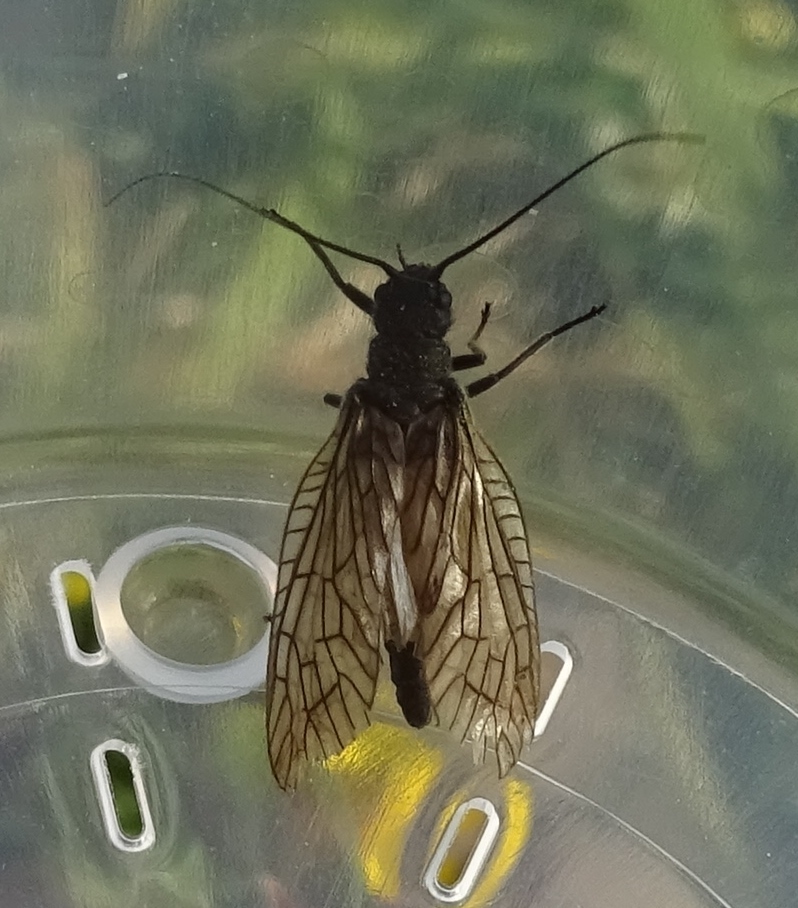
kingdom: Animalia
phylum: Arthropoda
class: Insecta
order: Megaloptera
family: Sialidae
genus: Sialis
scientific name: Sialis
